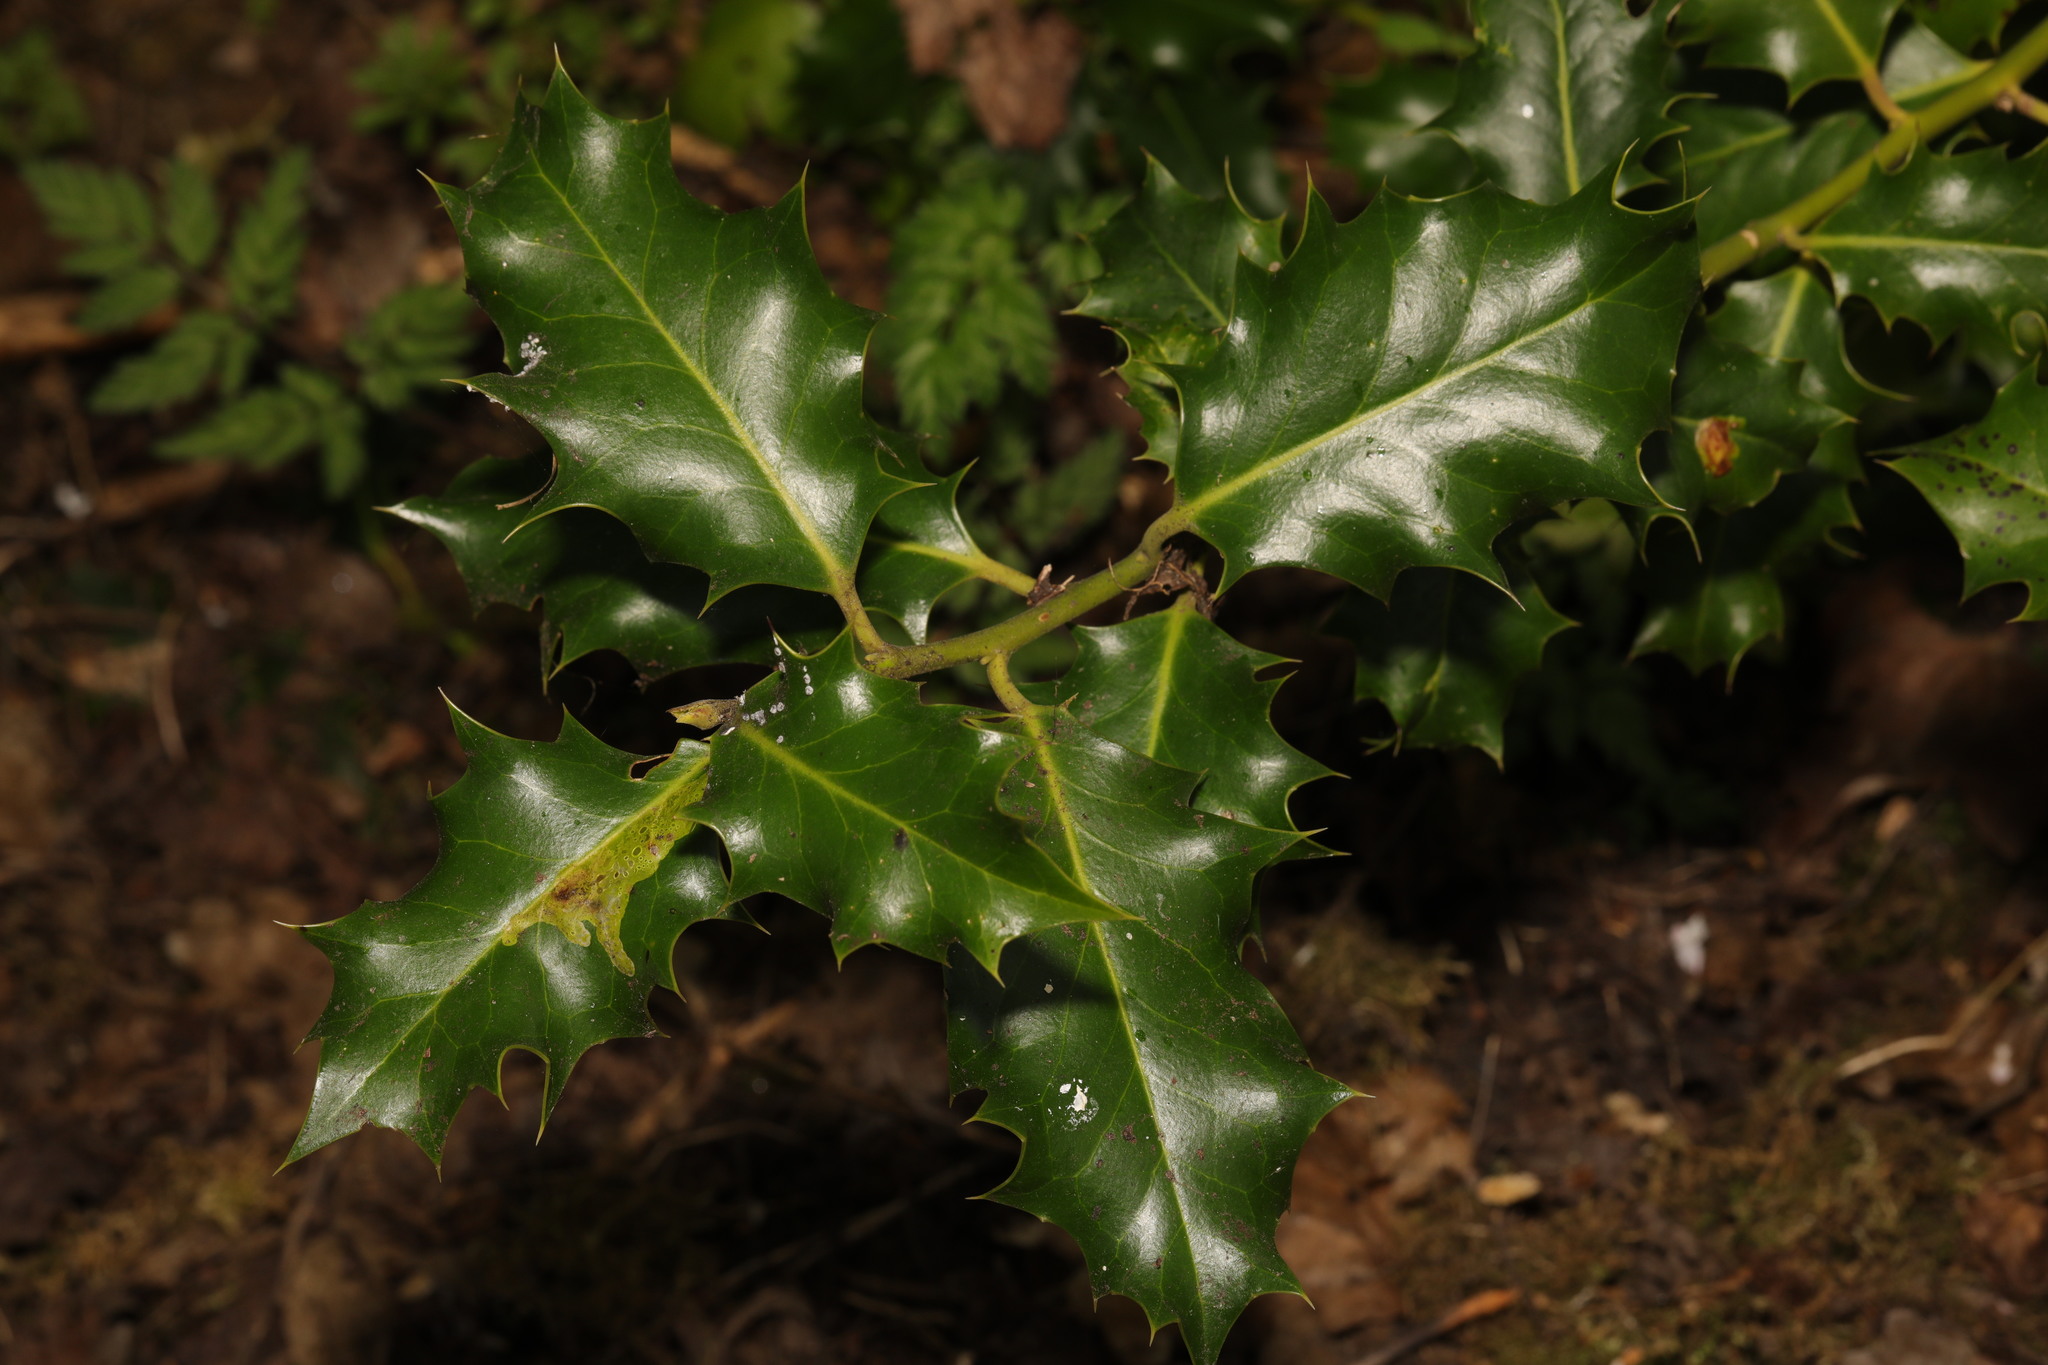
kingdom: Plantae
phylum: Tracheophyta
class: Magnoliopsida
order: Aquifoliales
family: Aquifoliaceae
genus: Ilex
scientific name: Ilex aquifolium
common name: English holly
